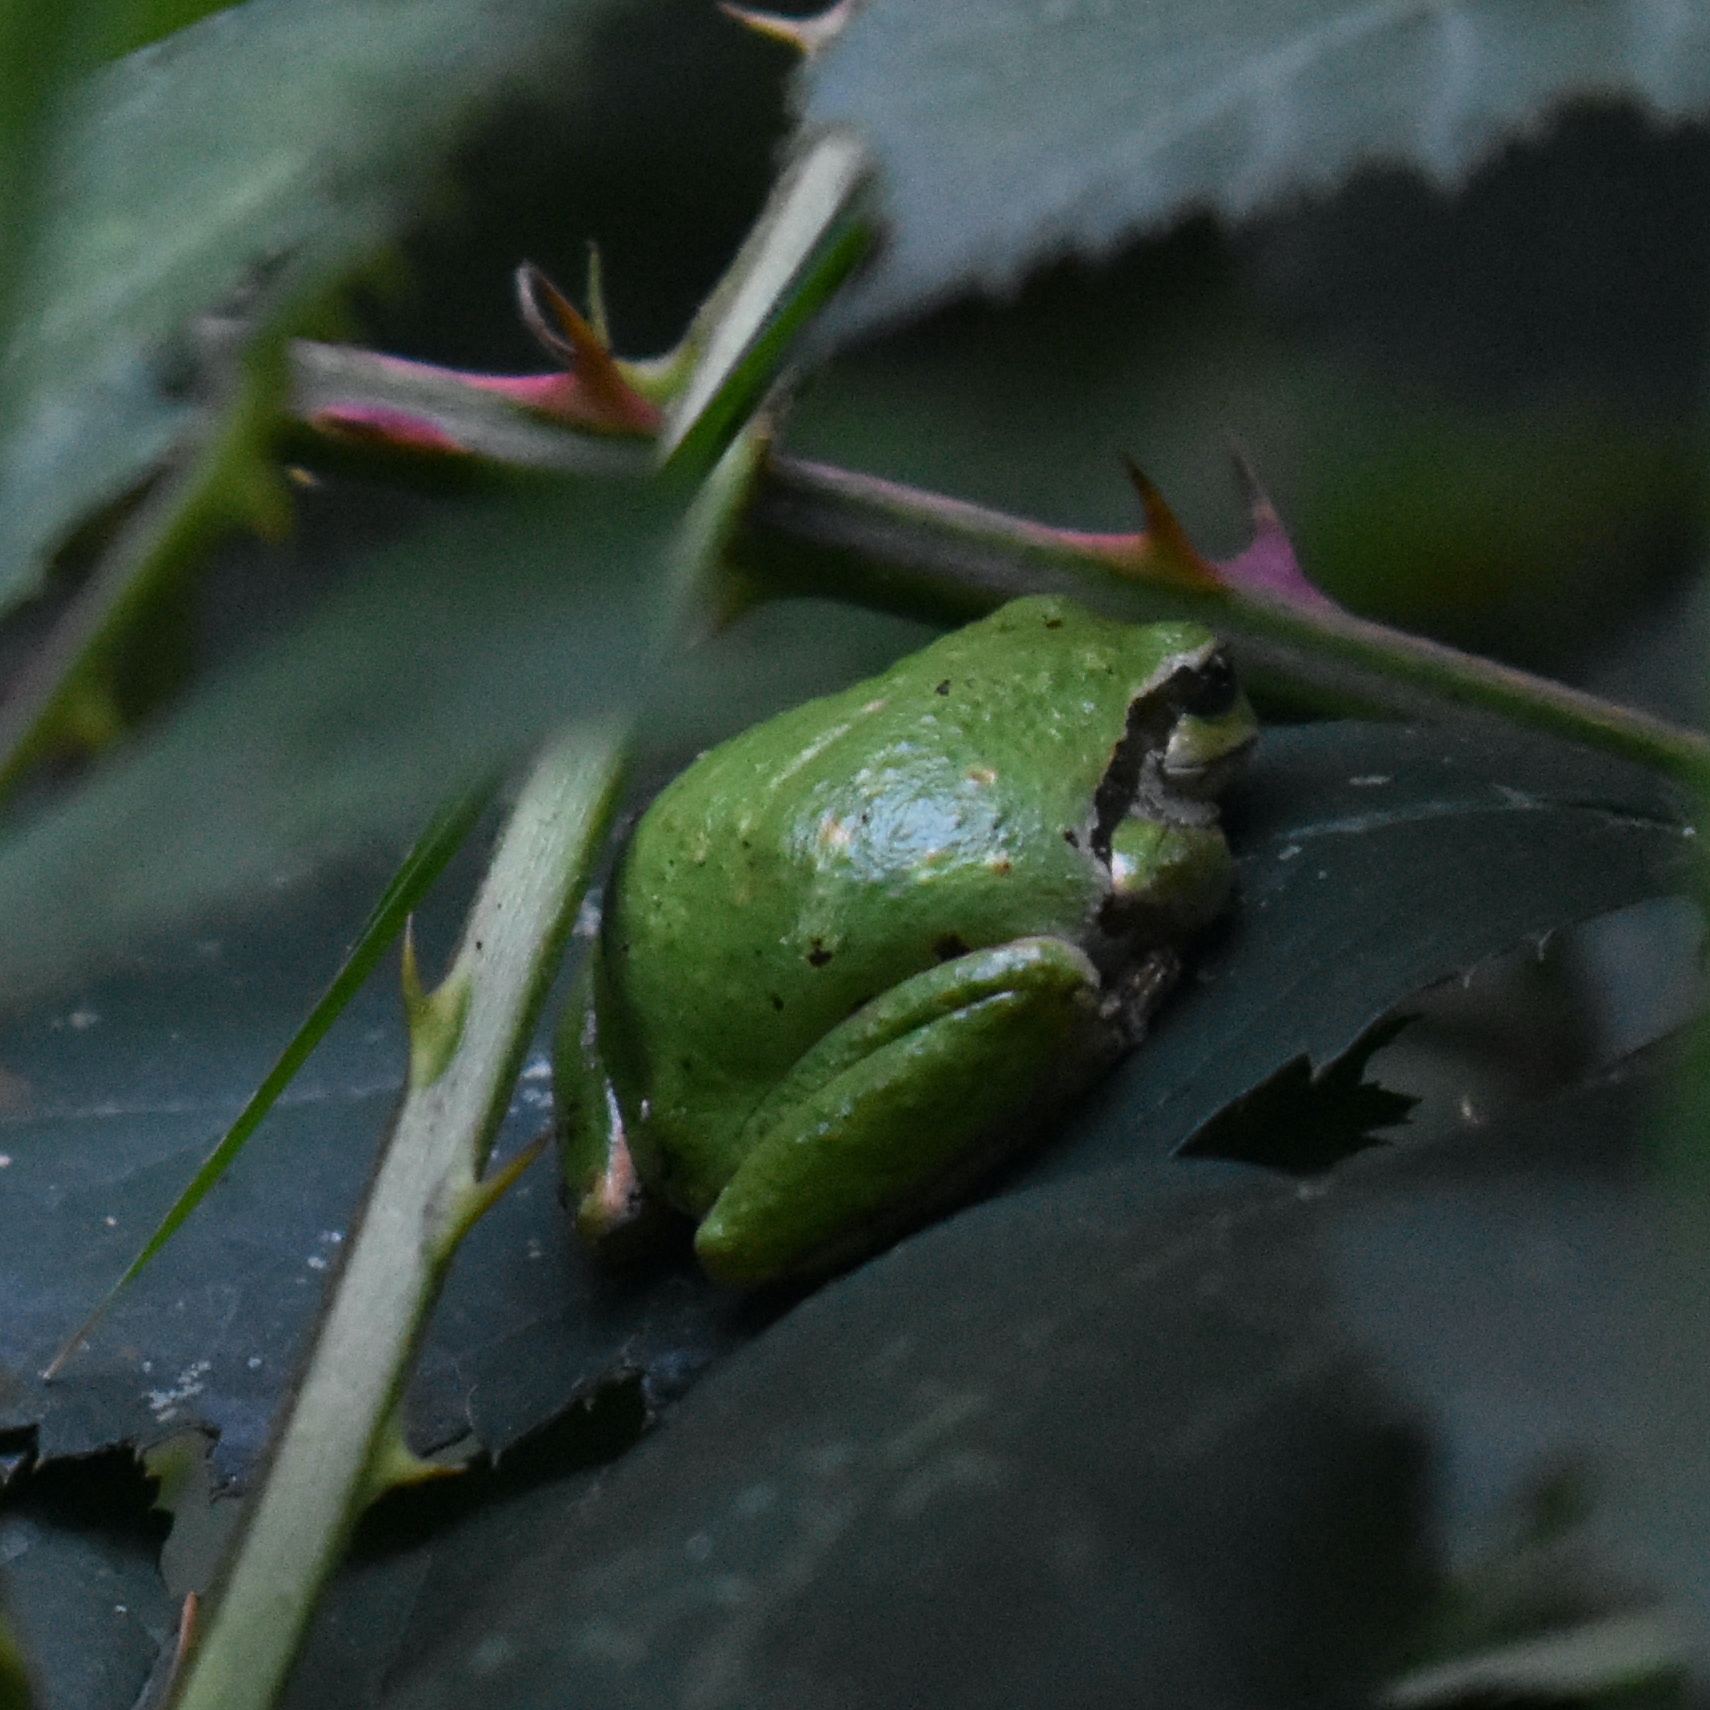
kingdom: Animalia
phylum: Chordata
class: Amphibia
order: Anura
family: Hylidae
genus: Pseudacris
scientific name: Pseudacris regilla
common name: Pacific chorus frog
